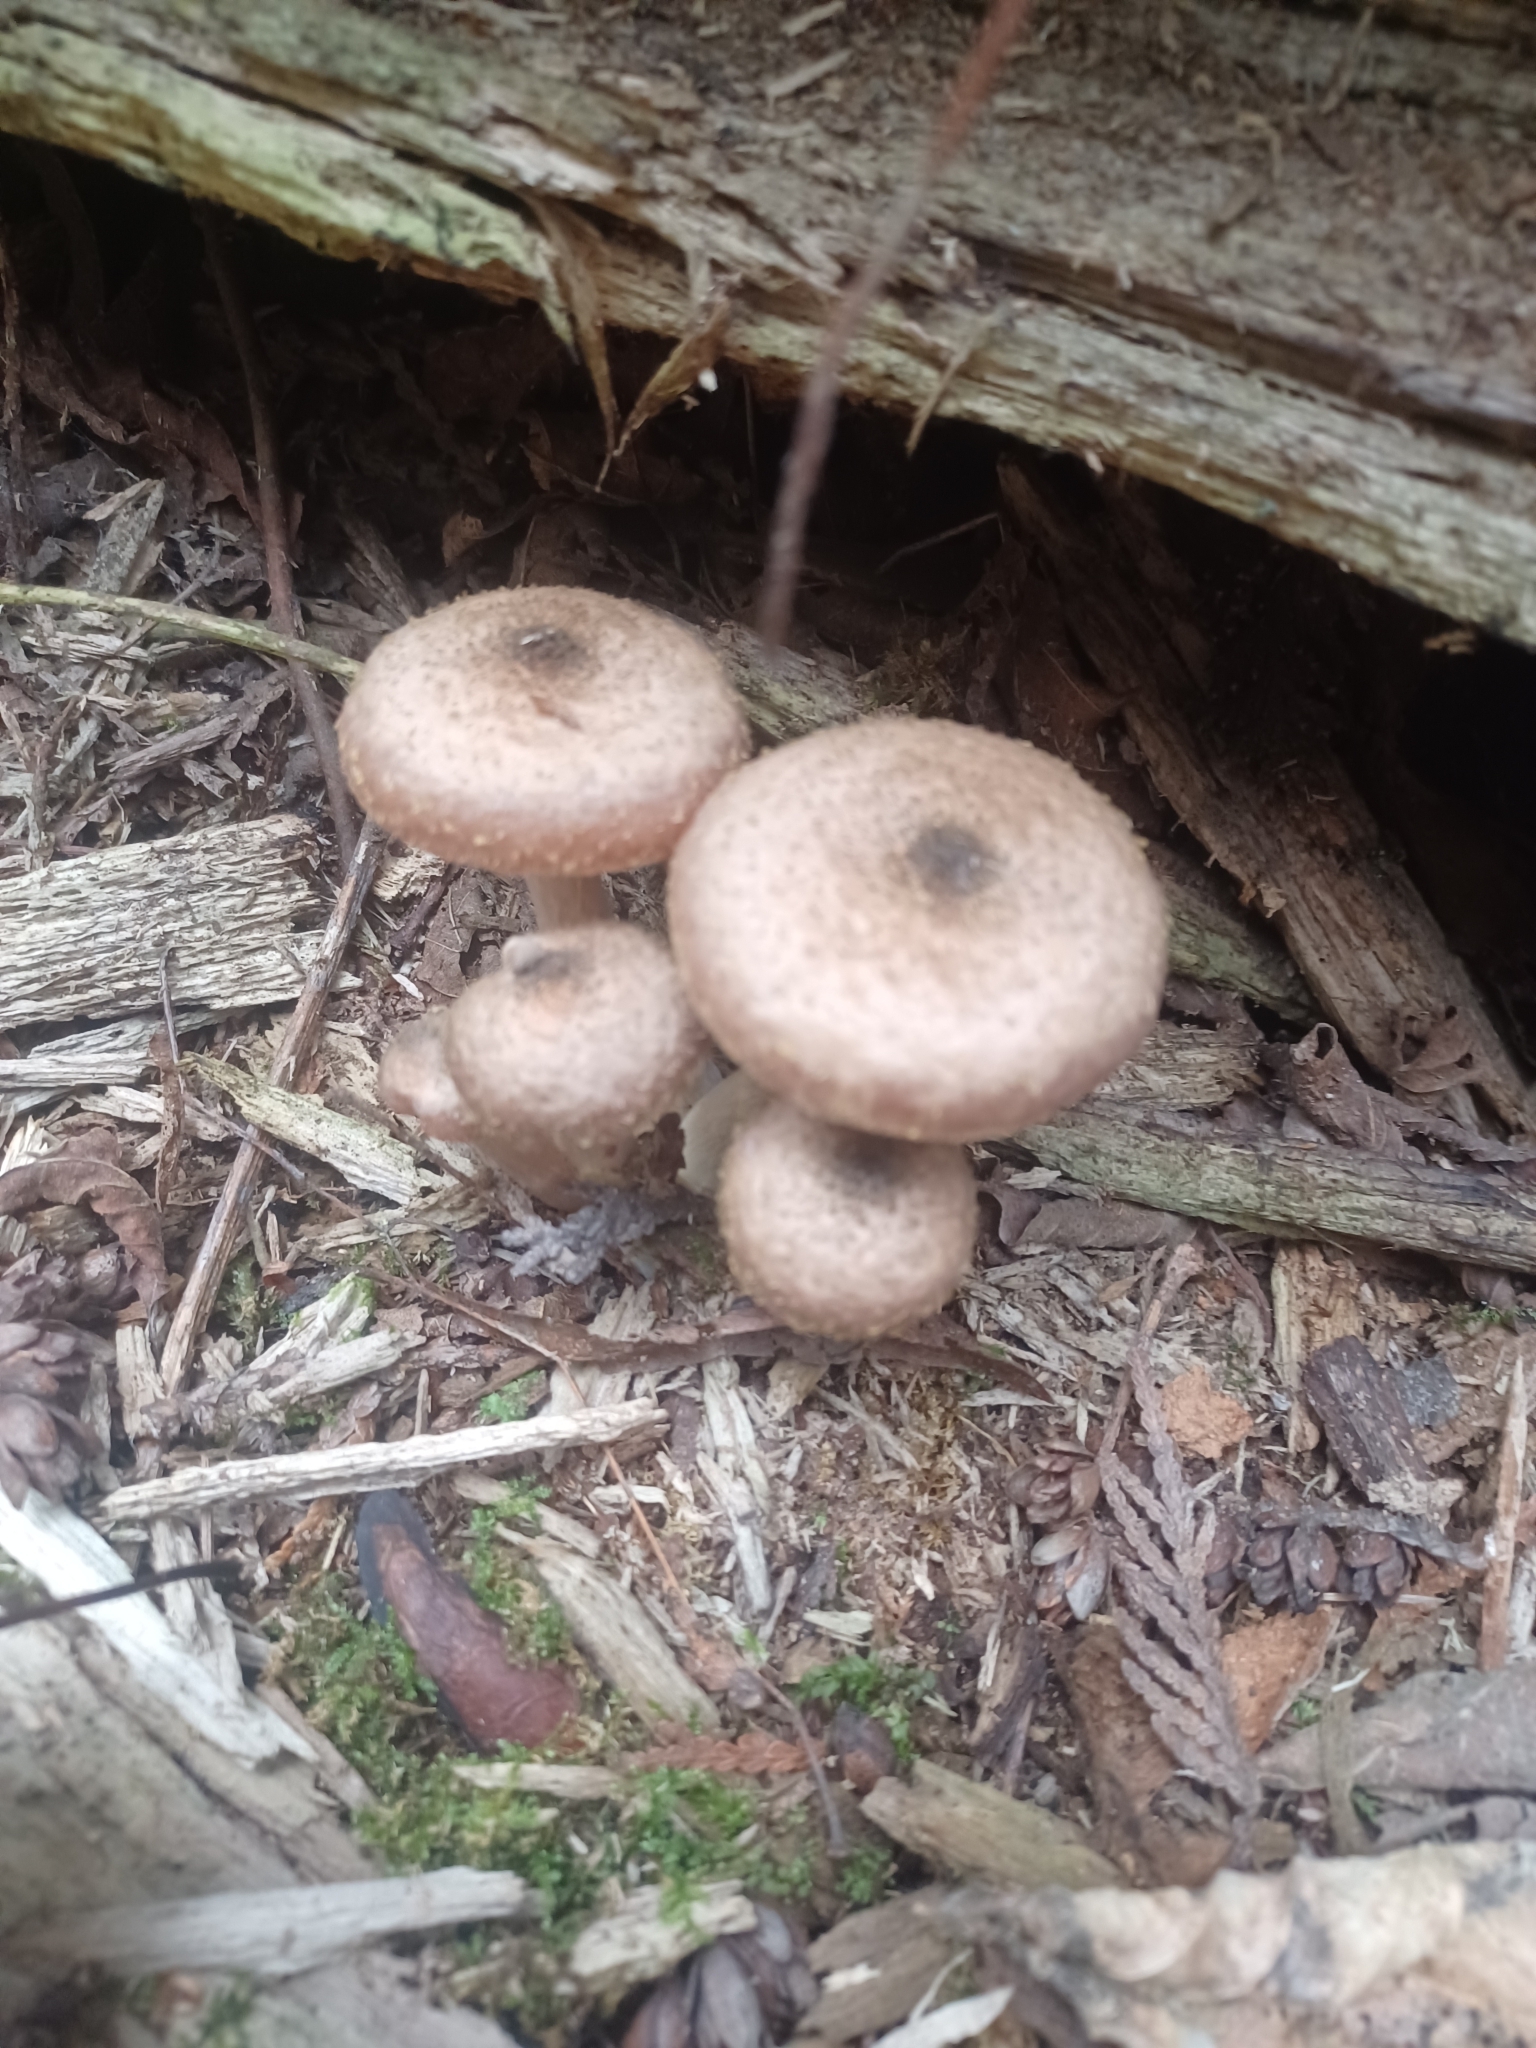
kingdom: Fungi
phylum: Basidiomycota
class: Agaricomycetes
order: Agaricales
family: Physalacriaceae
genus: Armillaria
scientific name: Armillaria sinapina
